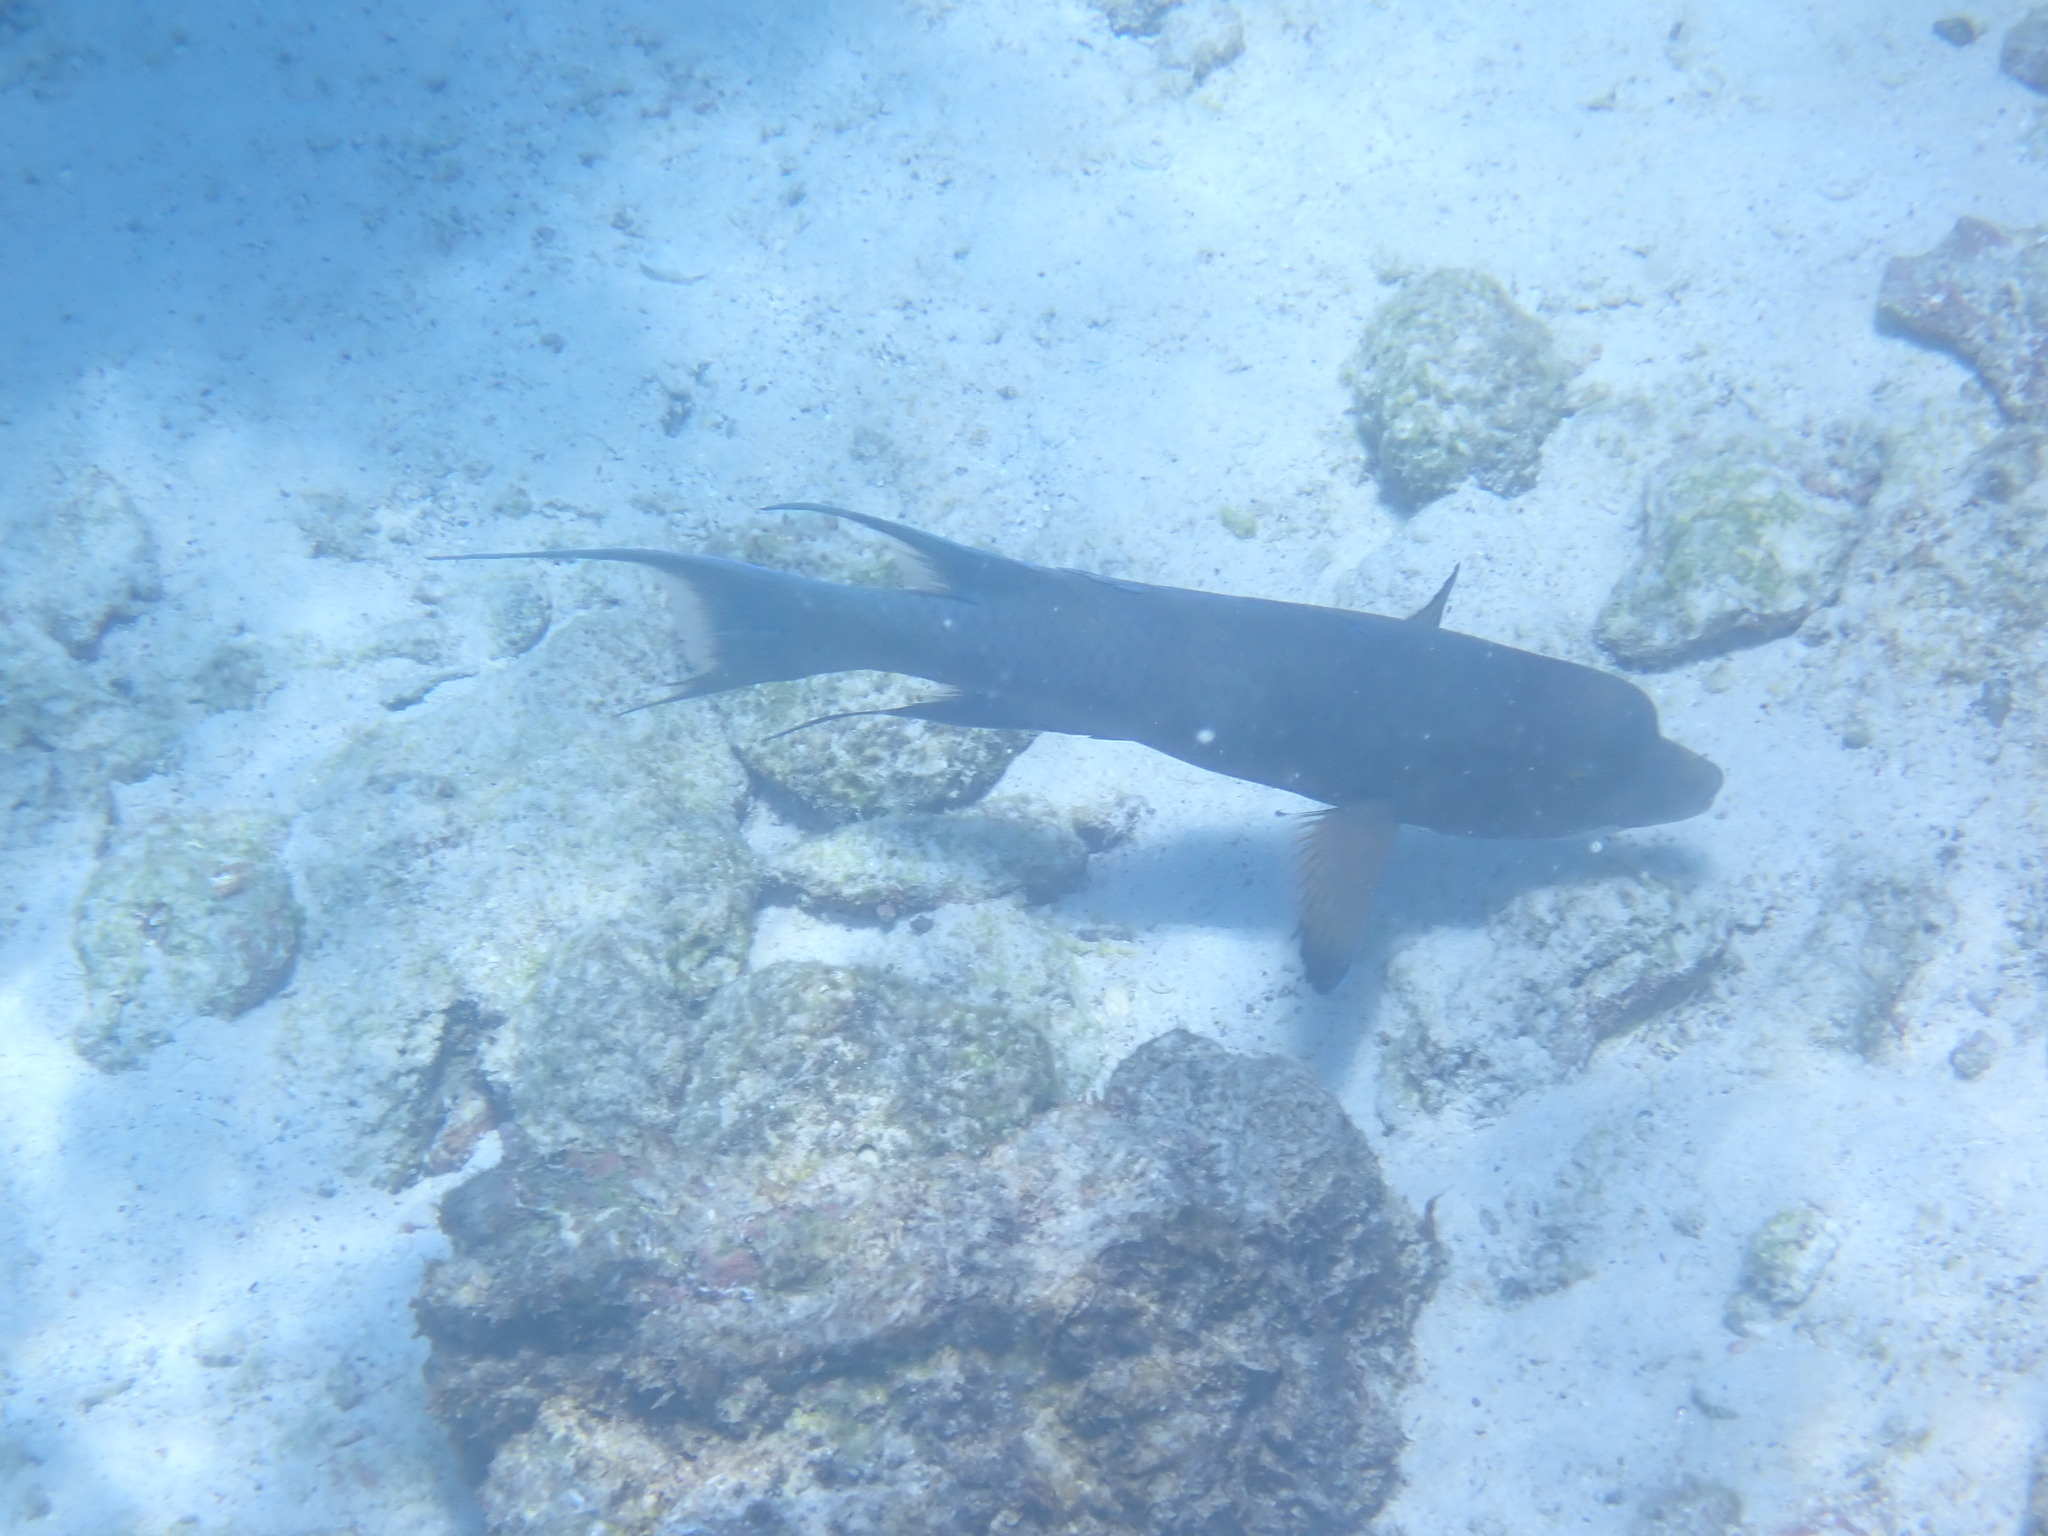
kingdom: Animalia
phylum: Chordata
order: Perciformes
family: Labridae
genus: Bodianus
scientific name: Bodianus diplotaenia
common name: Mexican hogfish
